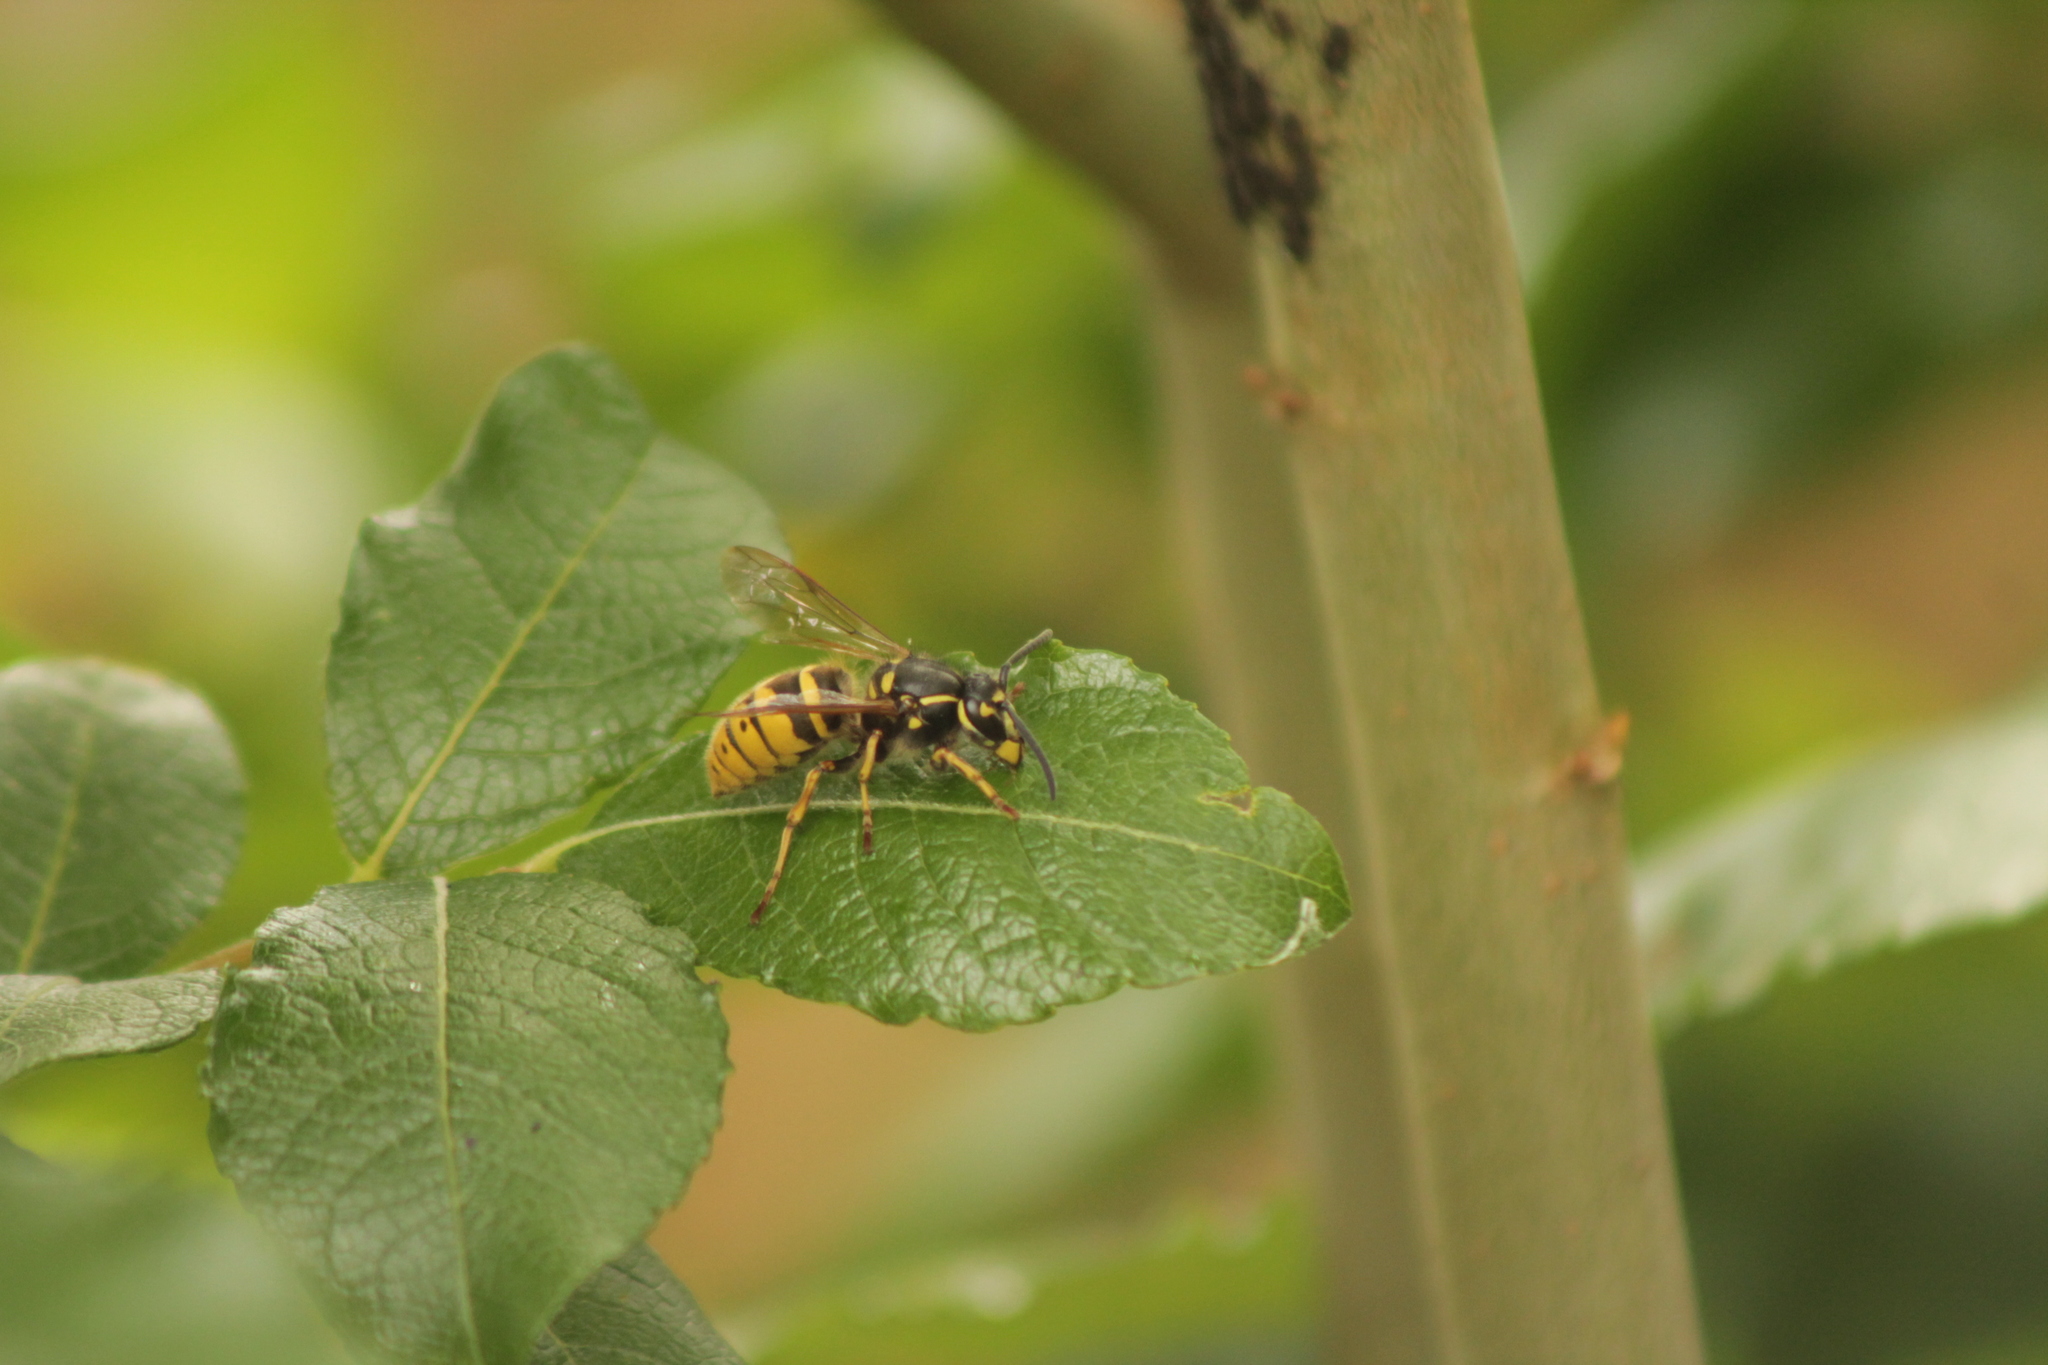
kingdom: Animalia
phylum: Arthropoda
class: Insecta
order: Hymenoptera
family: Vespidae
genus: Vespula
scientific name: Vespula vulgaris
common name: Common wasp
